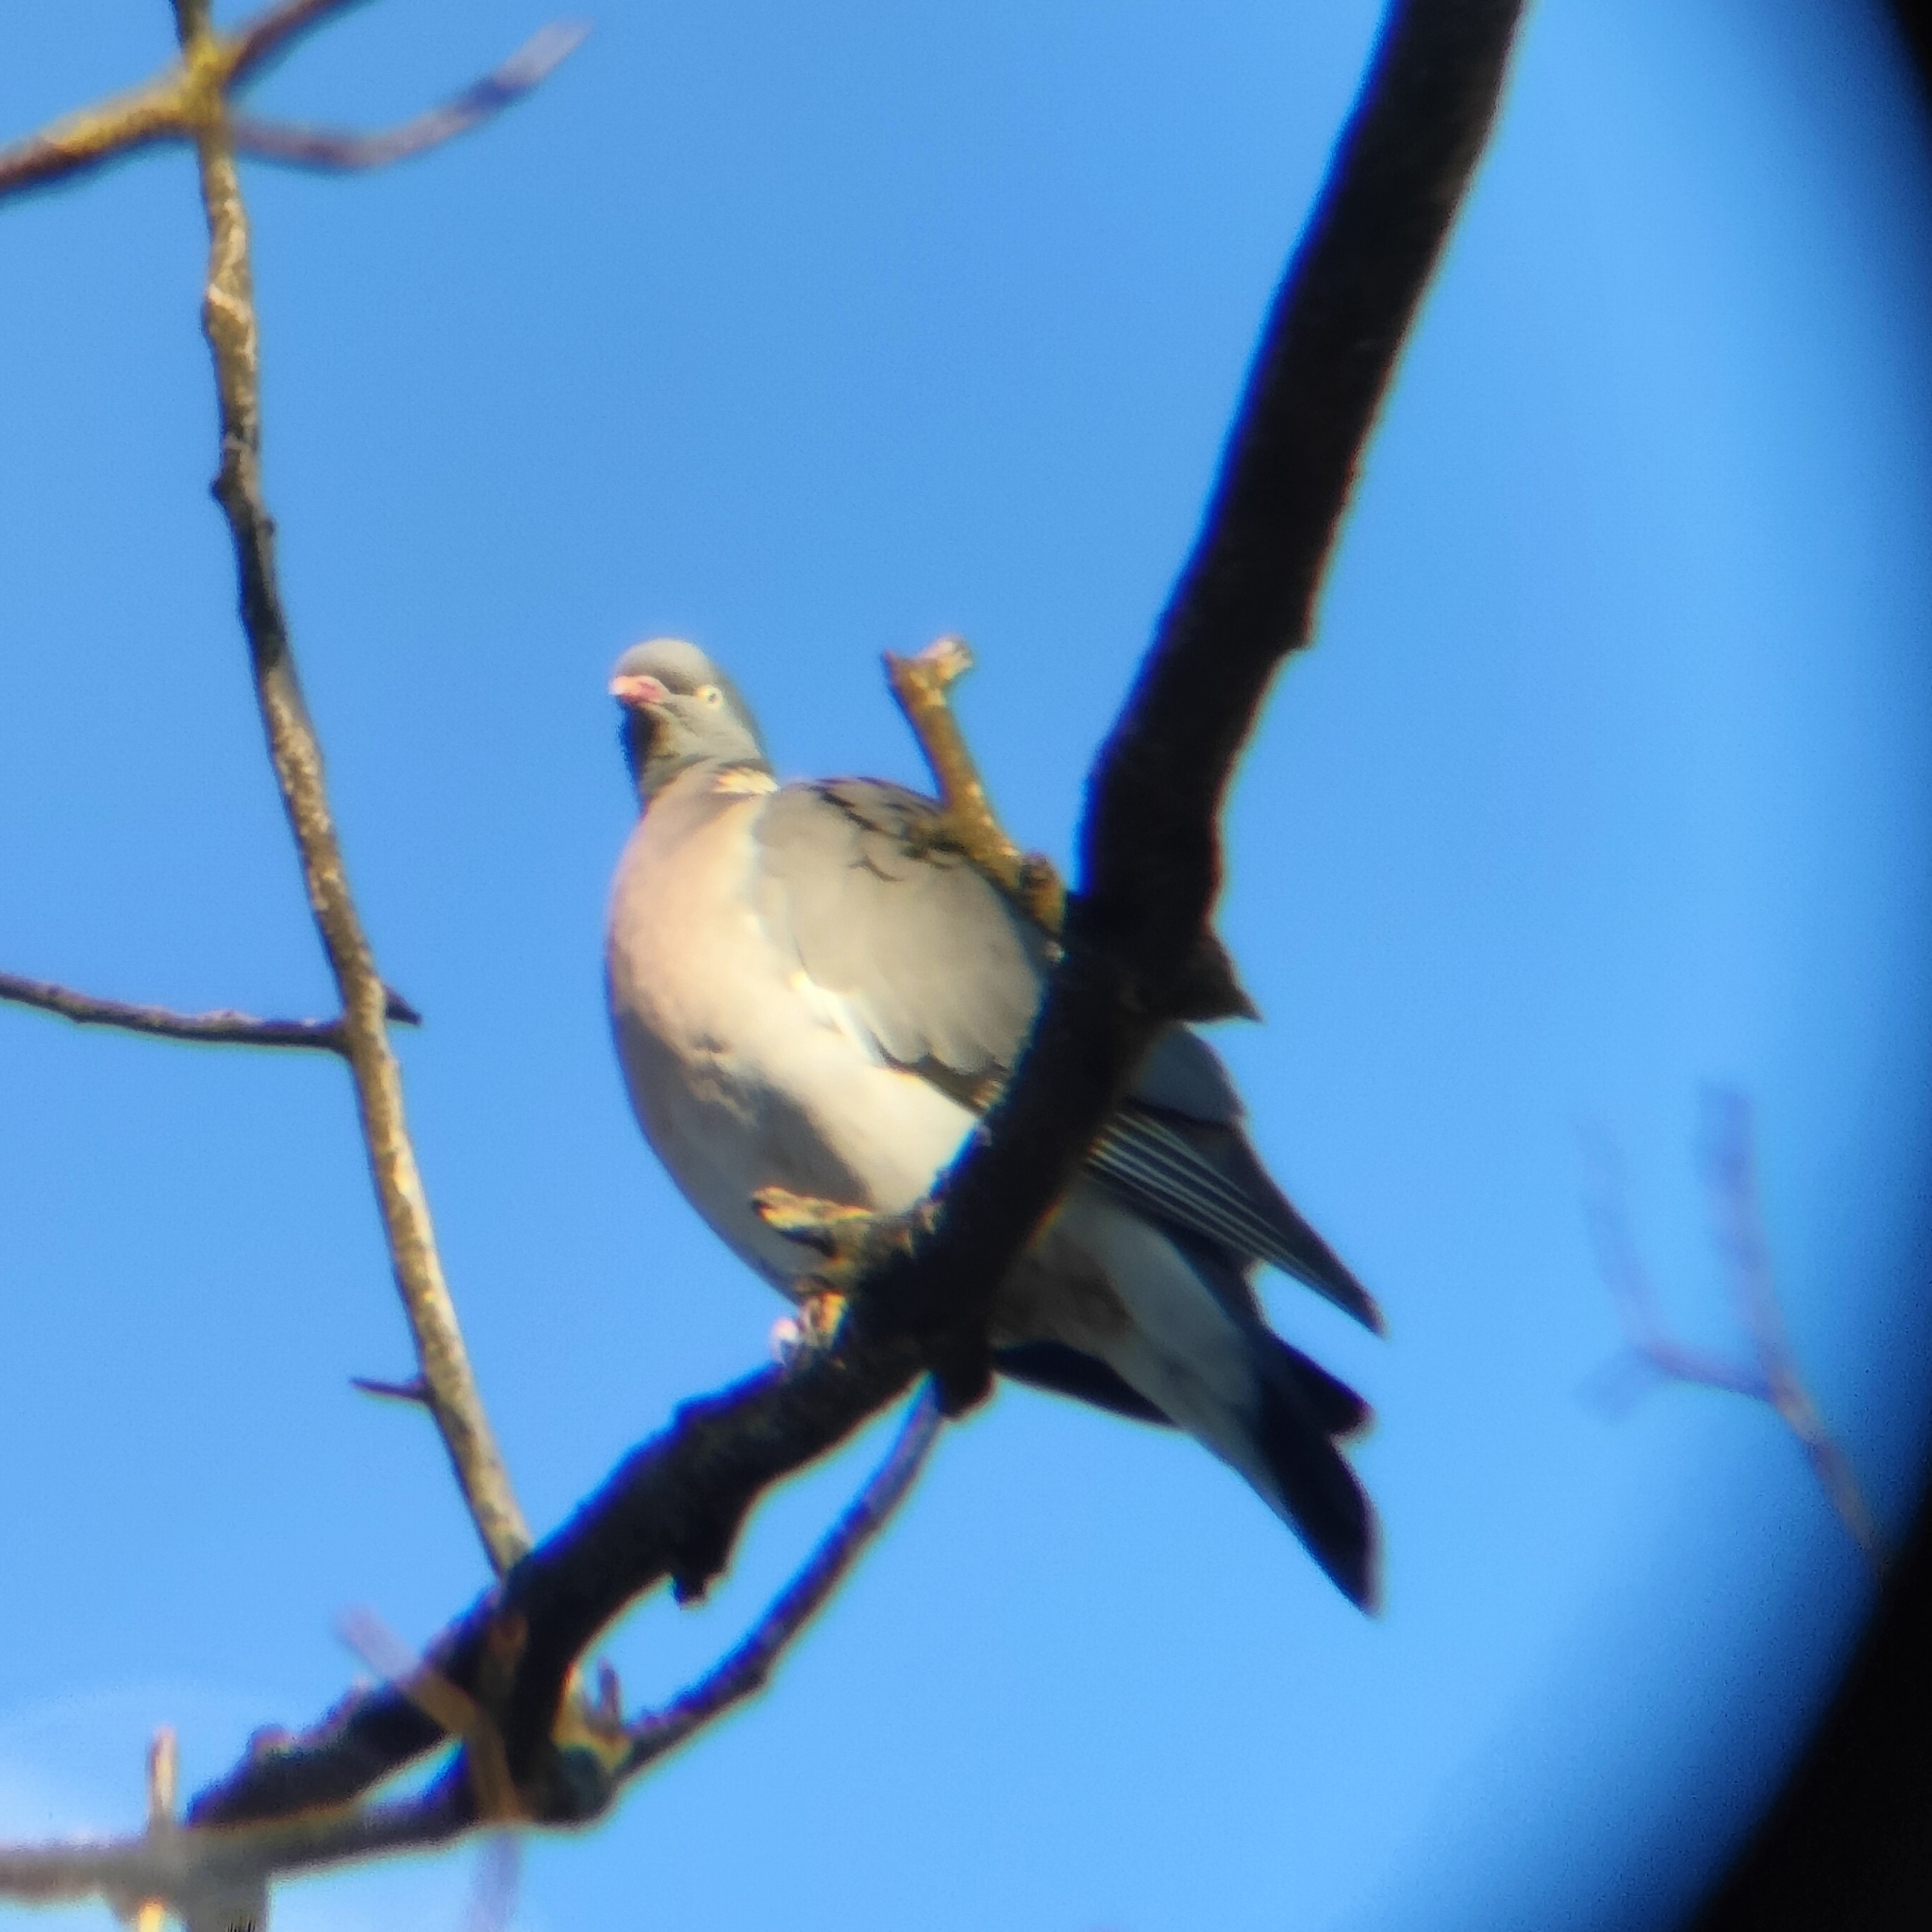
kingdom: Animalia
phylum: Chordata
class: Aves
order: Columbiformes
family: Columbidae
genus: Columba
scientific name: Columba palumbus
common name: Common wood pigeon
